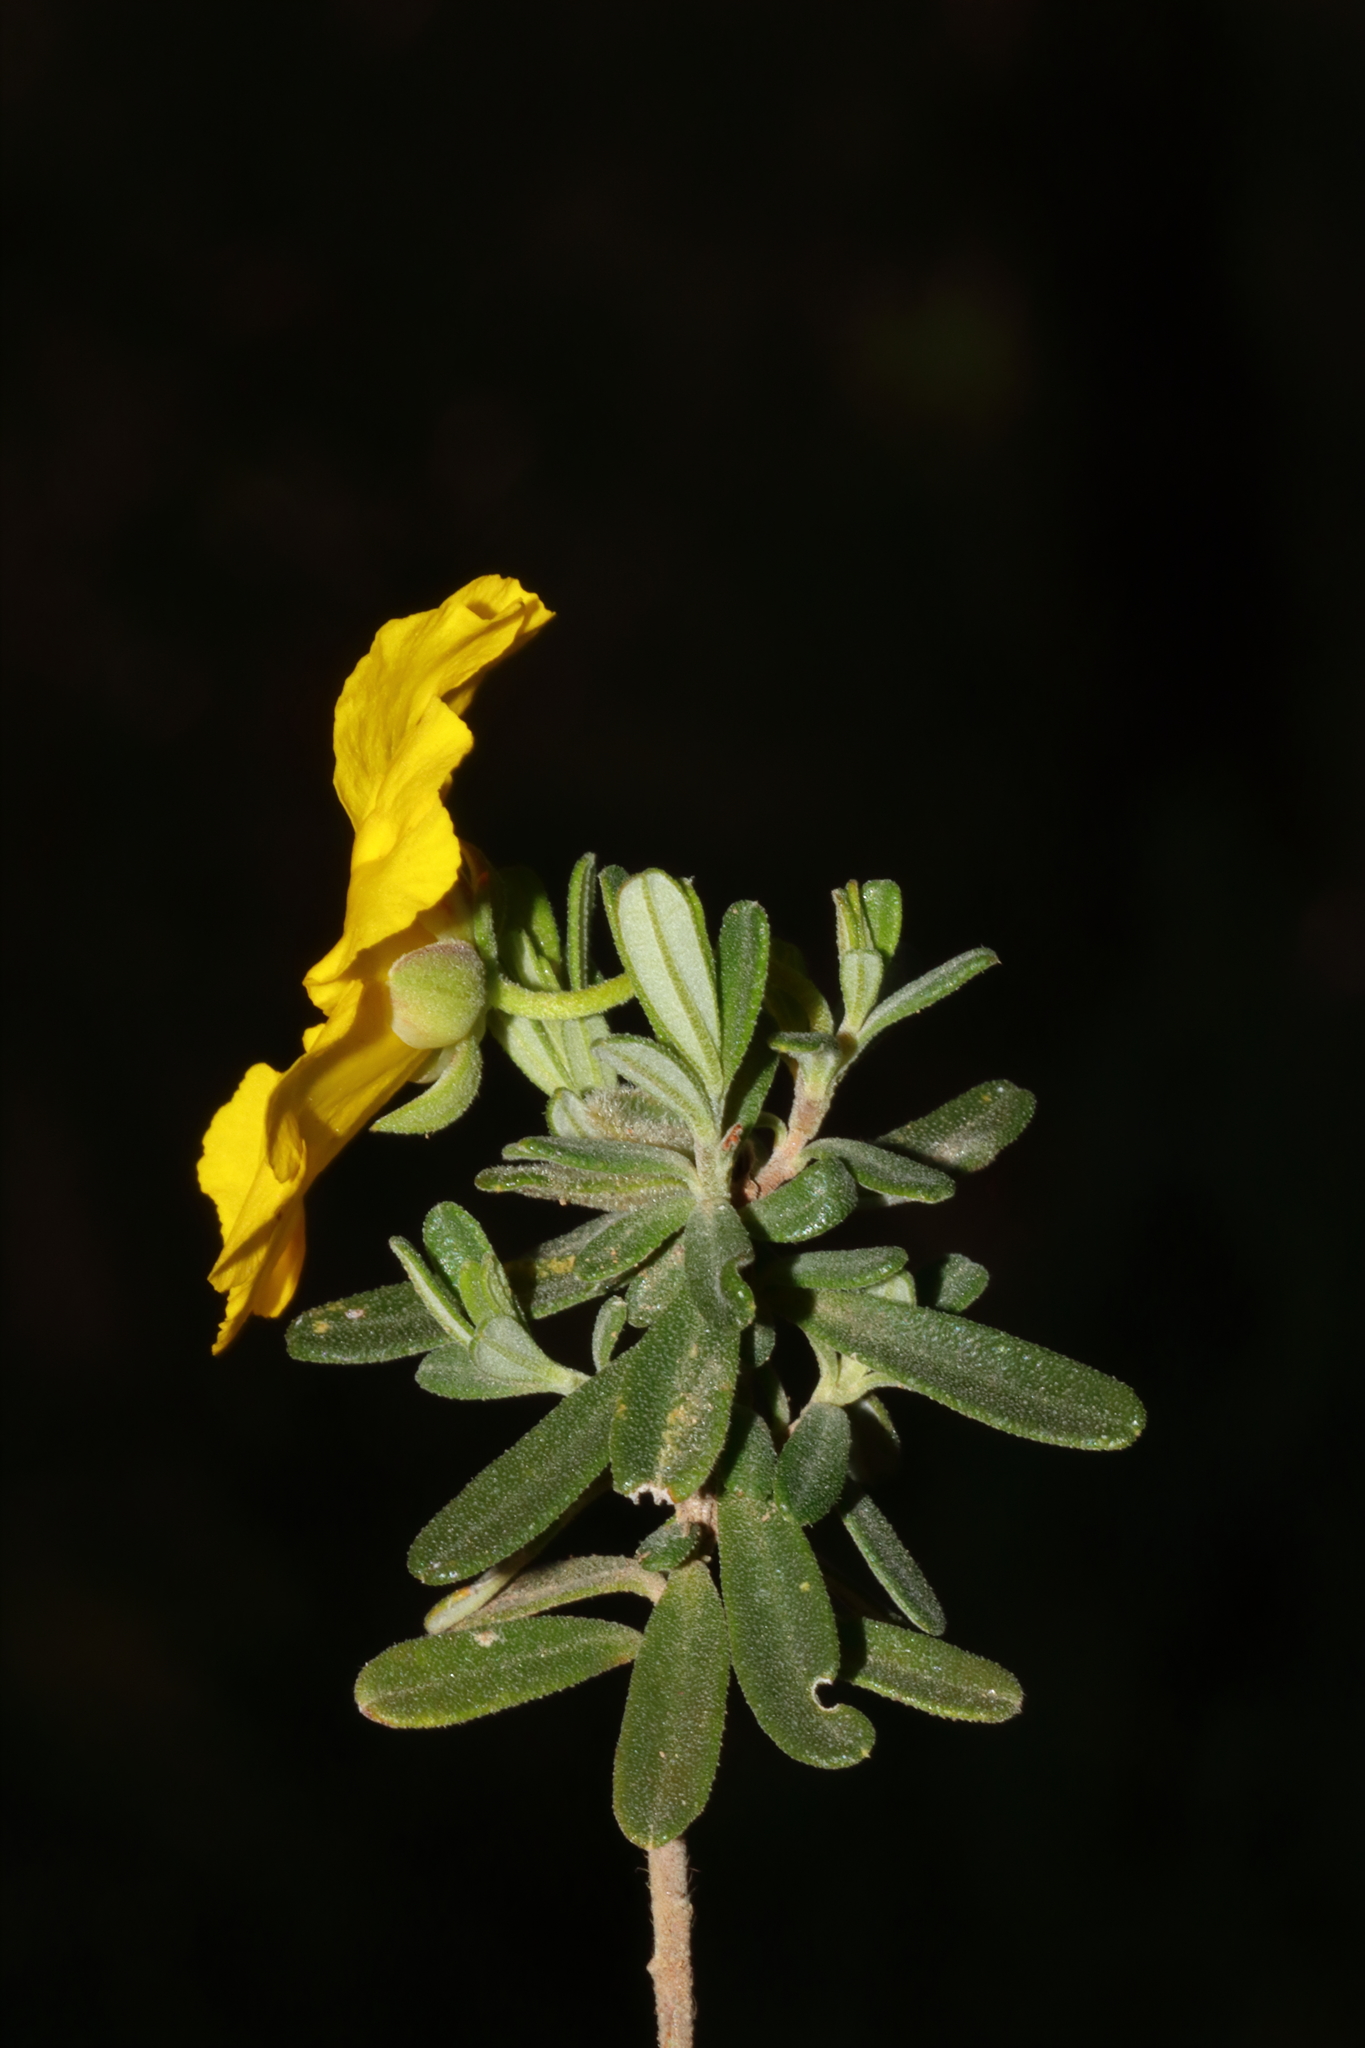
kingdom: Plantae
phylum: Tracheophyta
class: Magnoliopsida
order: Dilleniales
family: Dilleniaceae
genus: Hibbertia
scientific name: Hibbertia hypericoides
